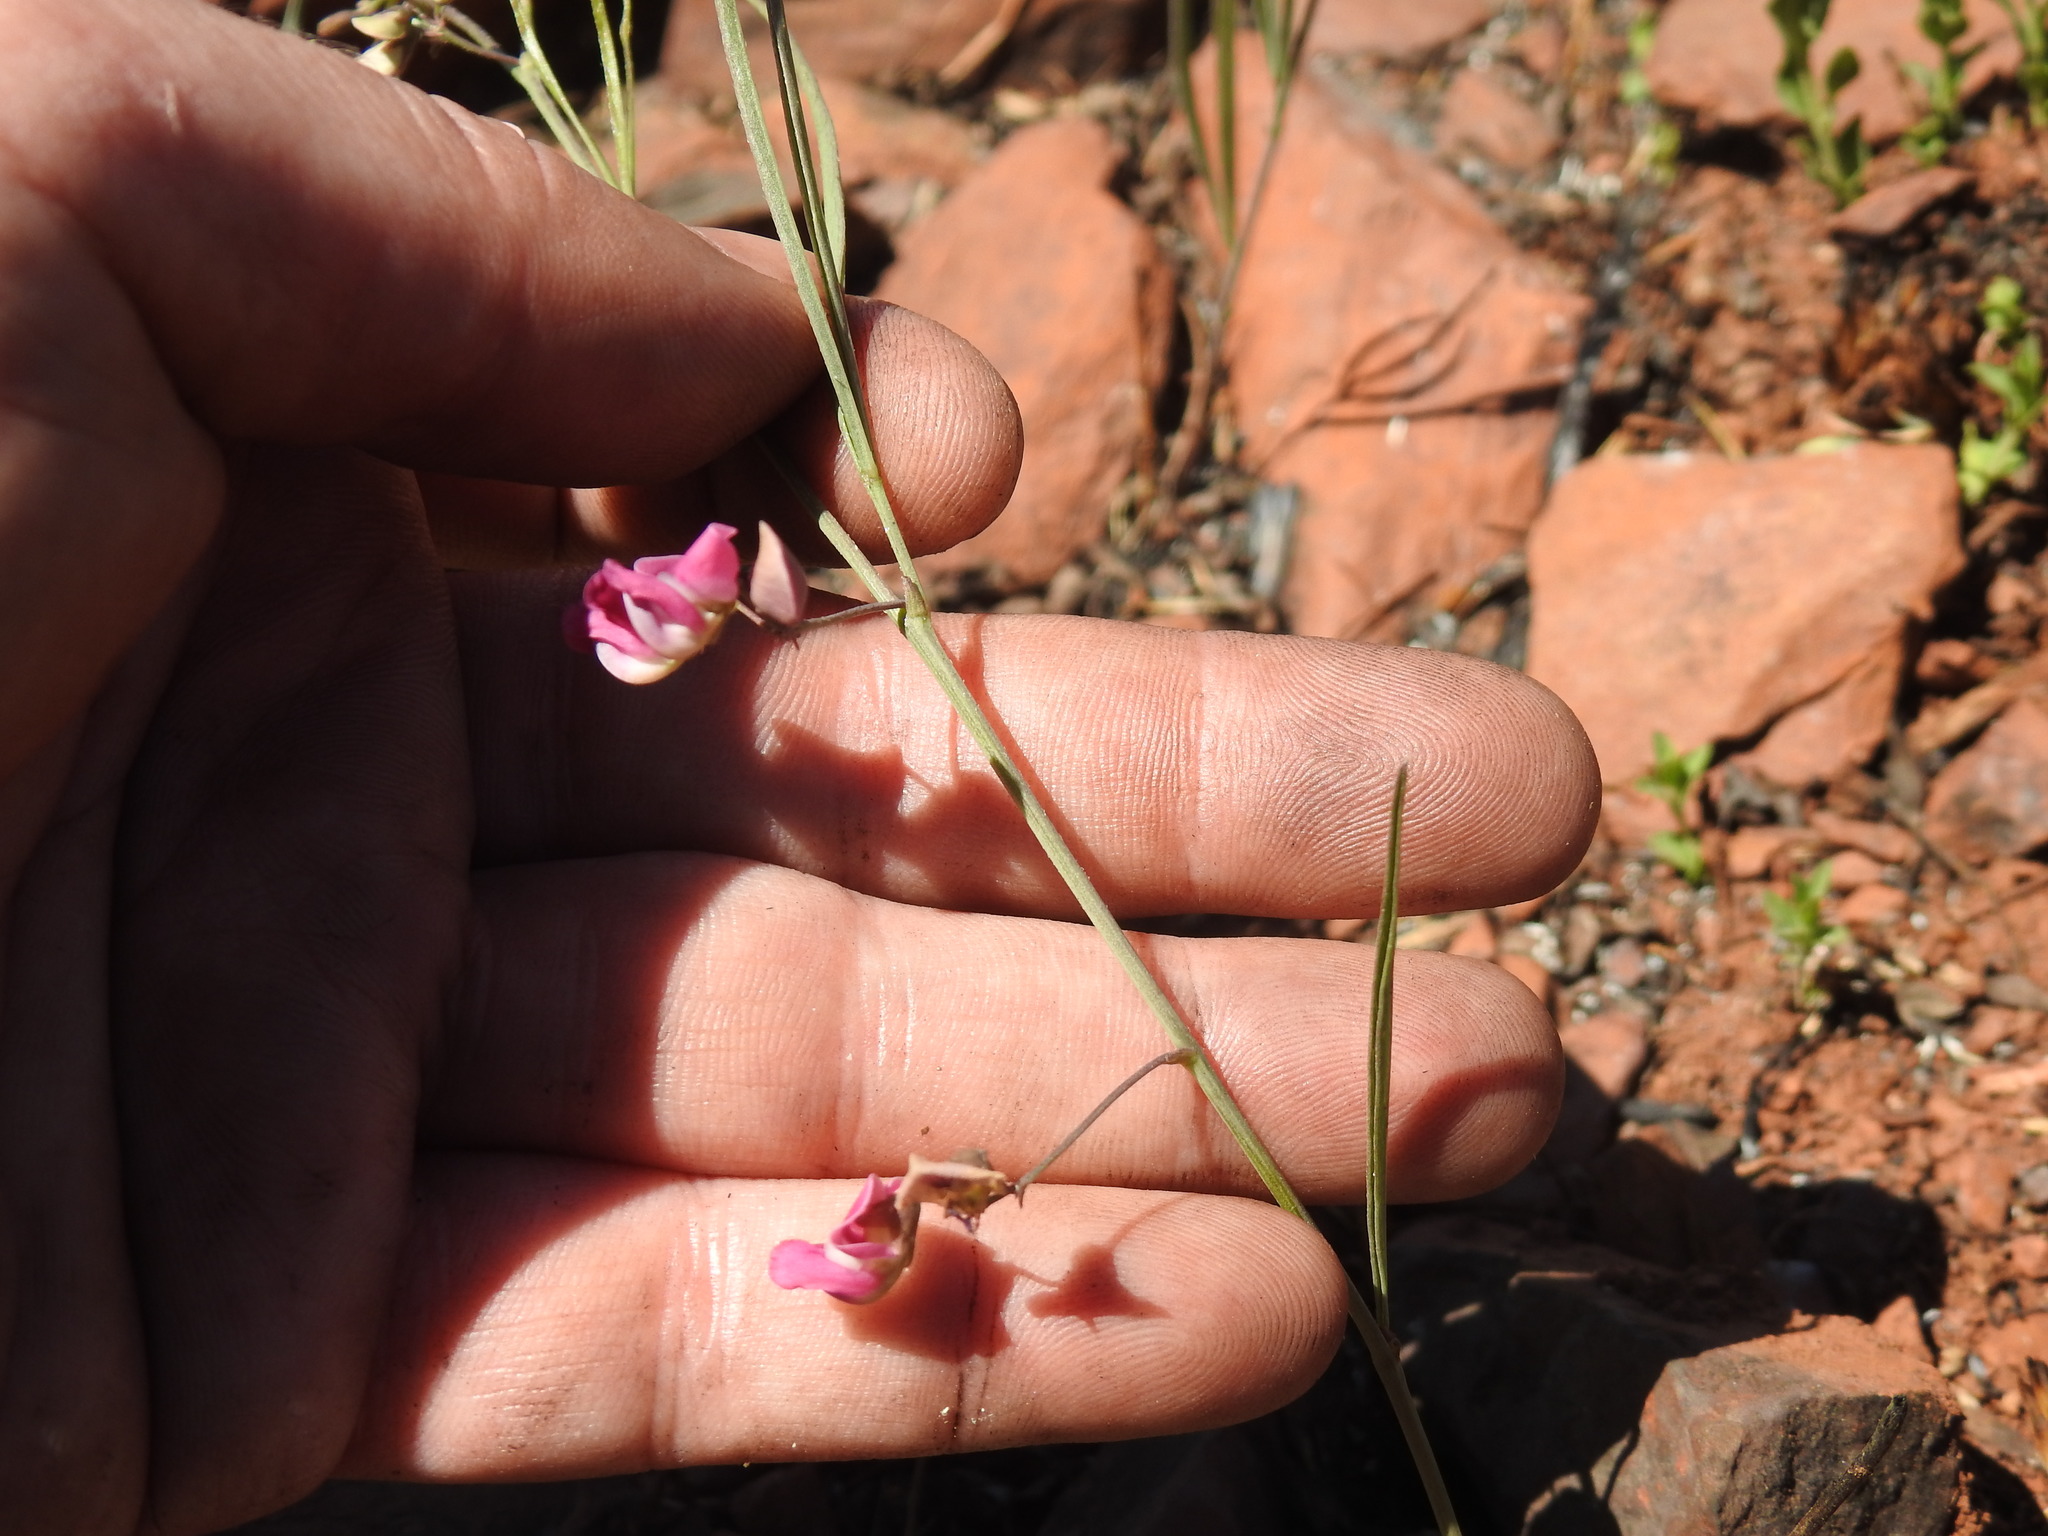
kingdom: Plantae
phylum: Tracheophyta
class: Magnoliopsida
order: Fabales
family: Fabaceae
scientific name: Fabaceae
